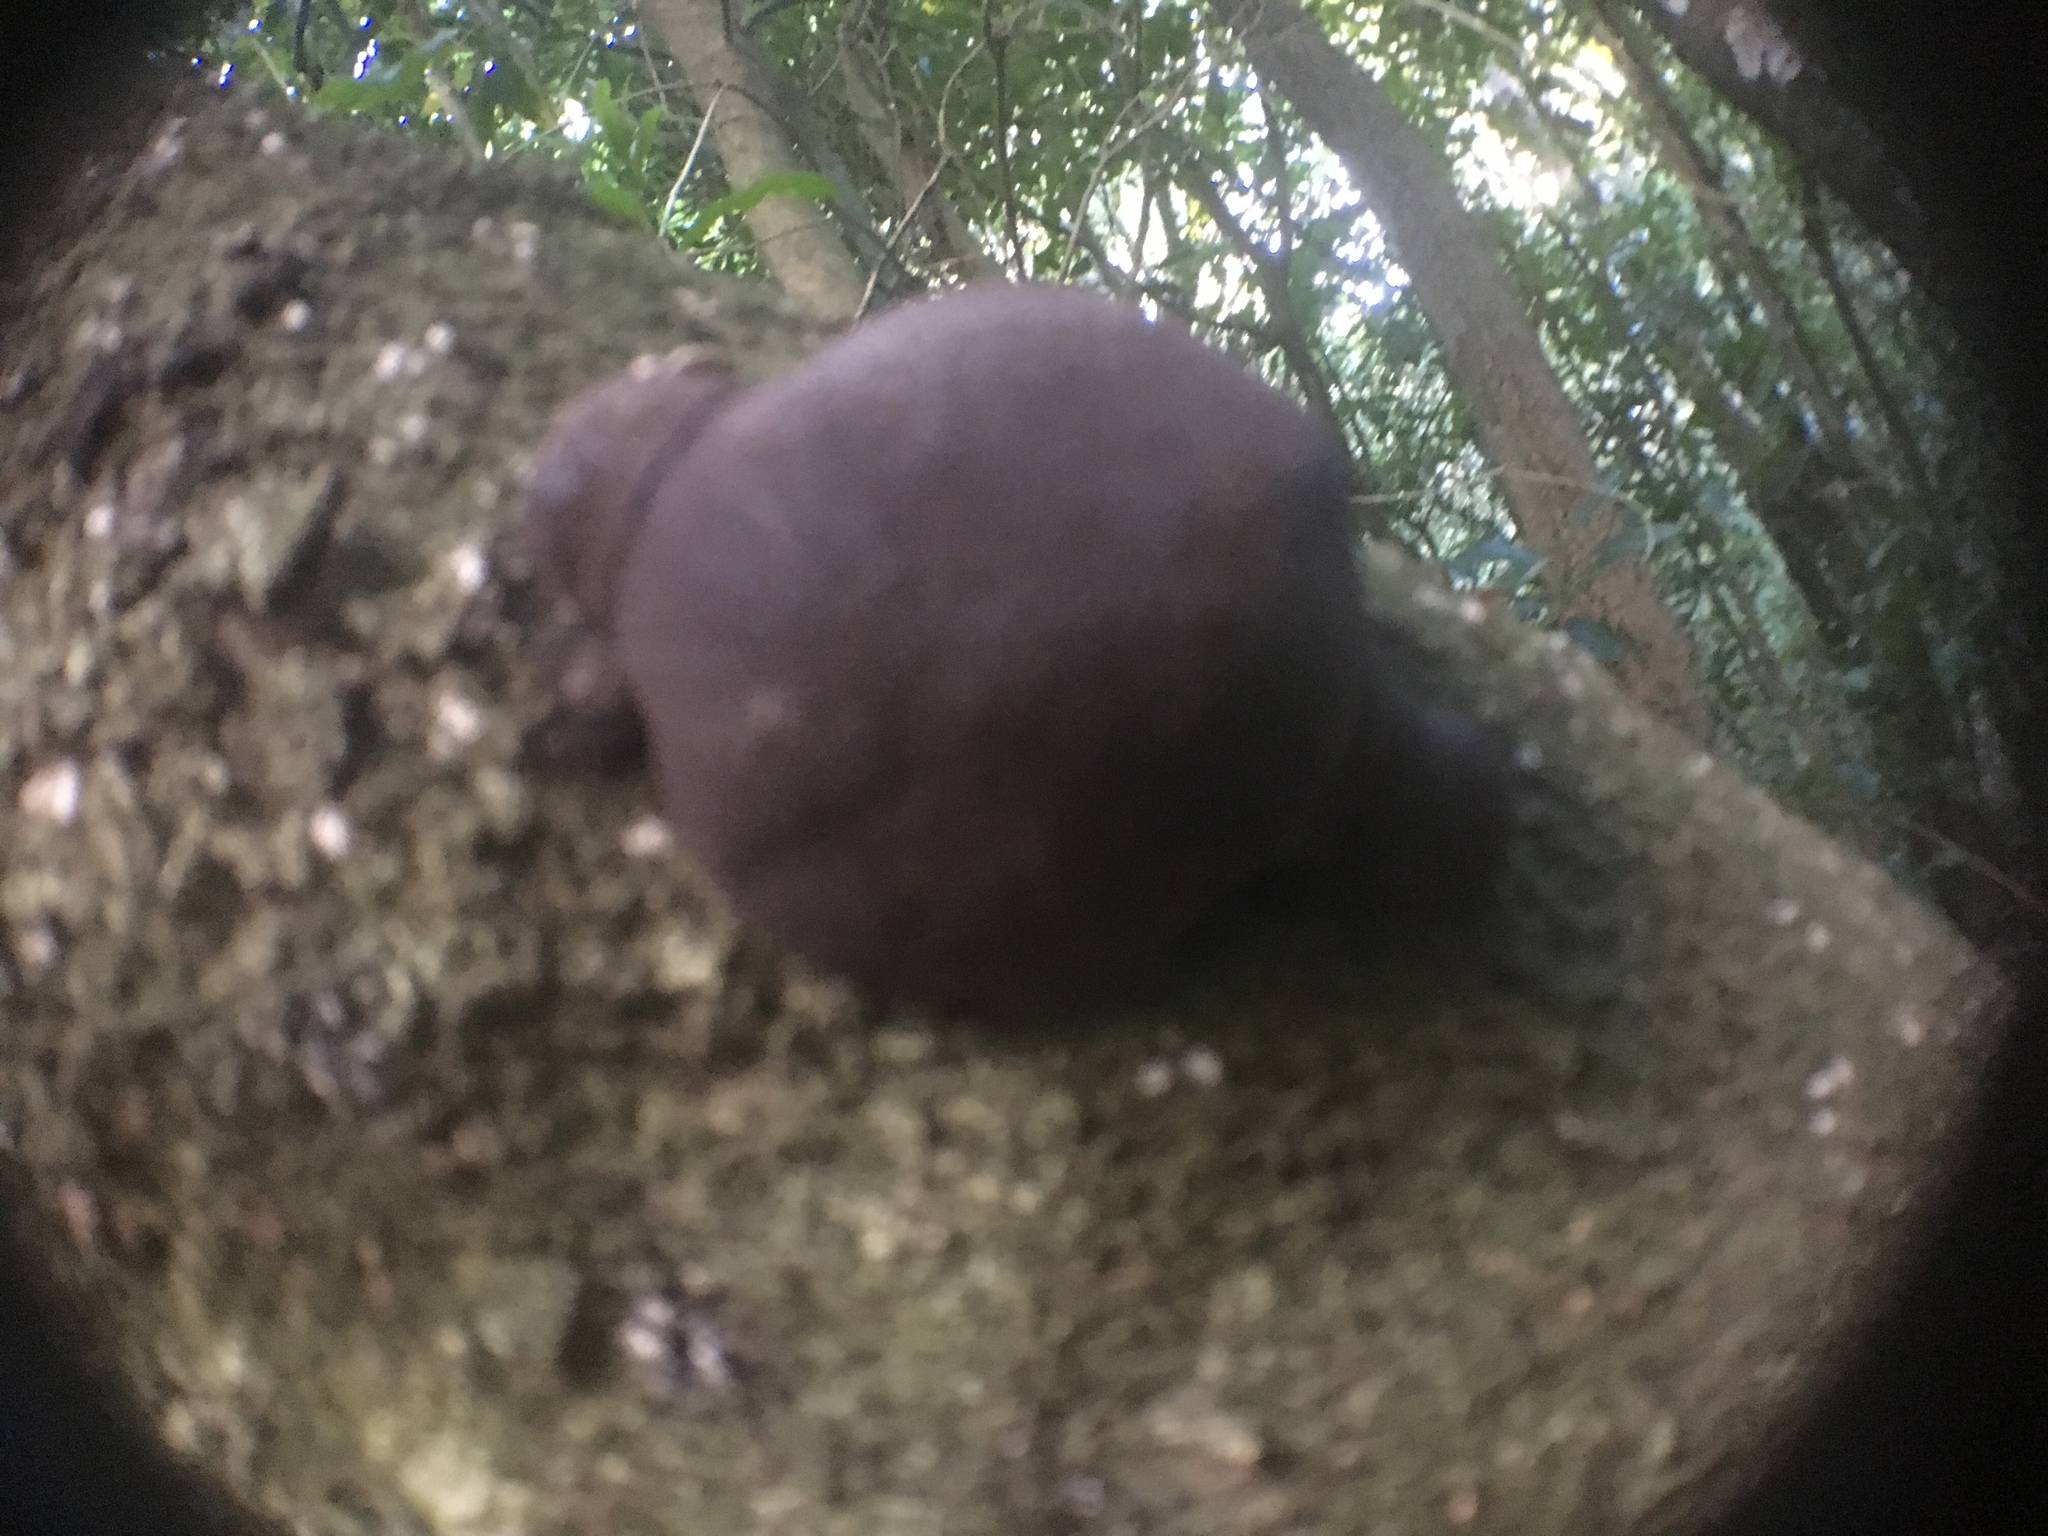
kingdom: Fungi
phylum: Ascomycota
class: Sordariomycetes
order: Xylariales
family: Hypoxylaceae
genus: Daldinia
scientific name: Daldinia
